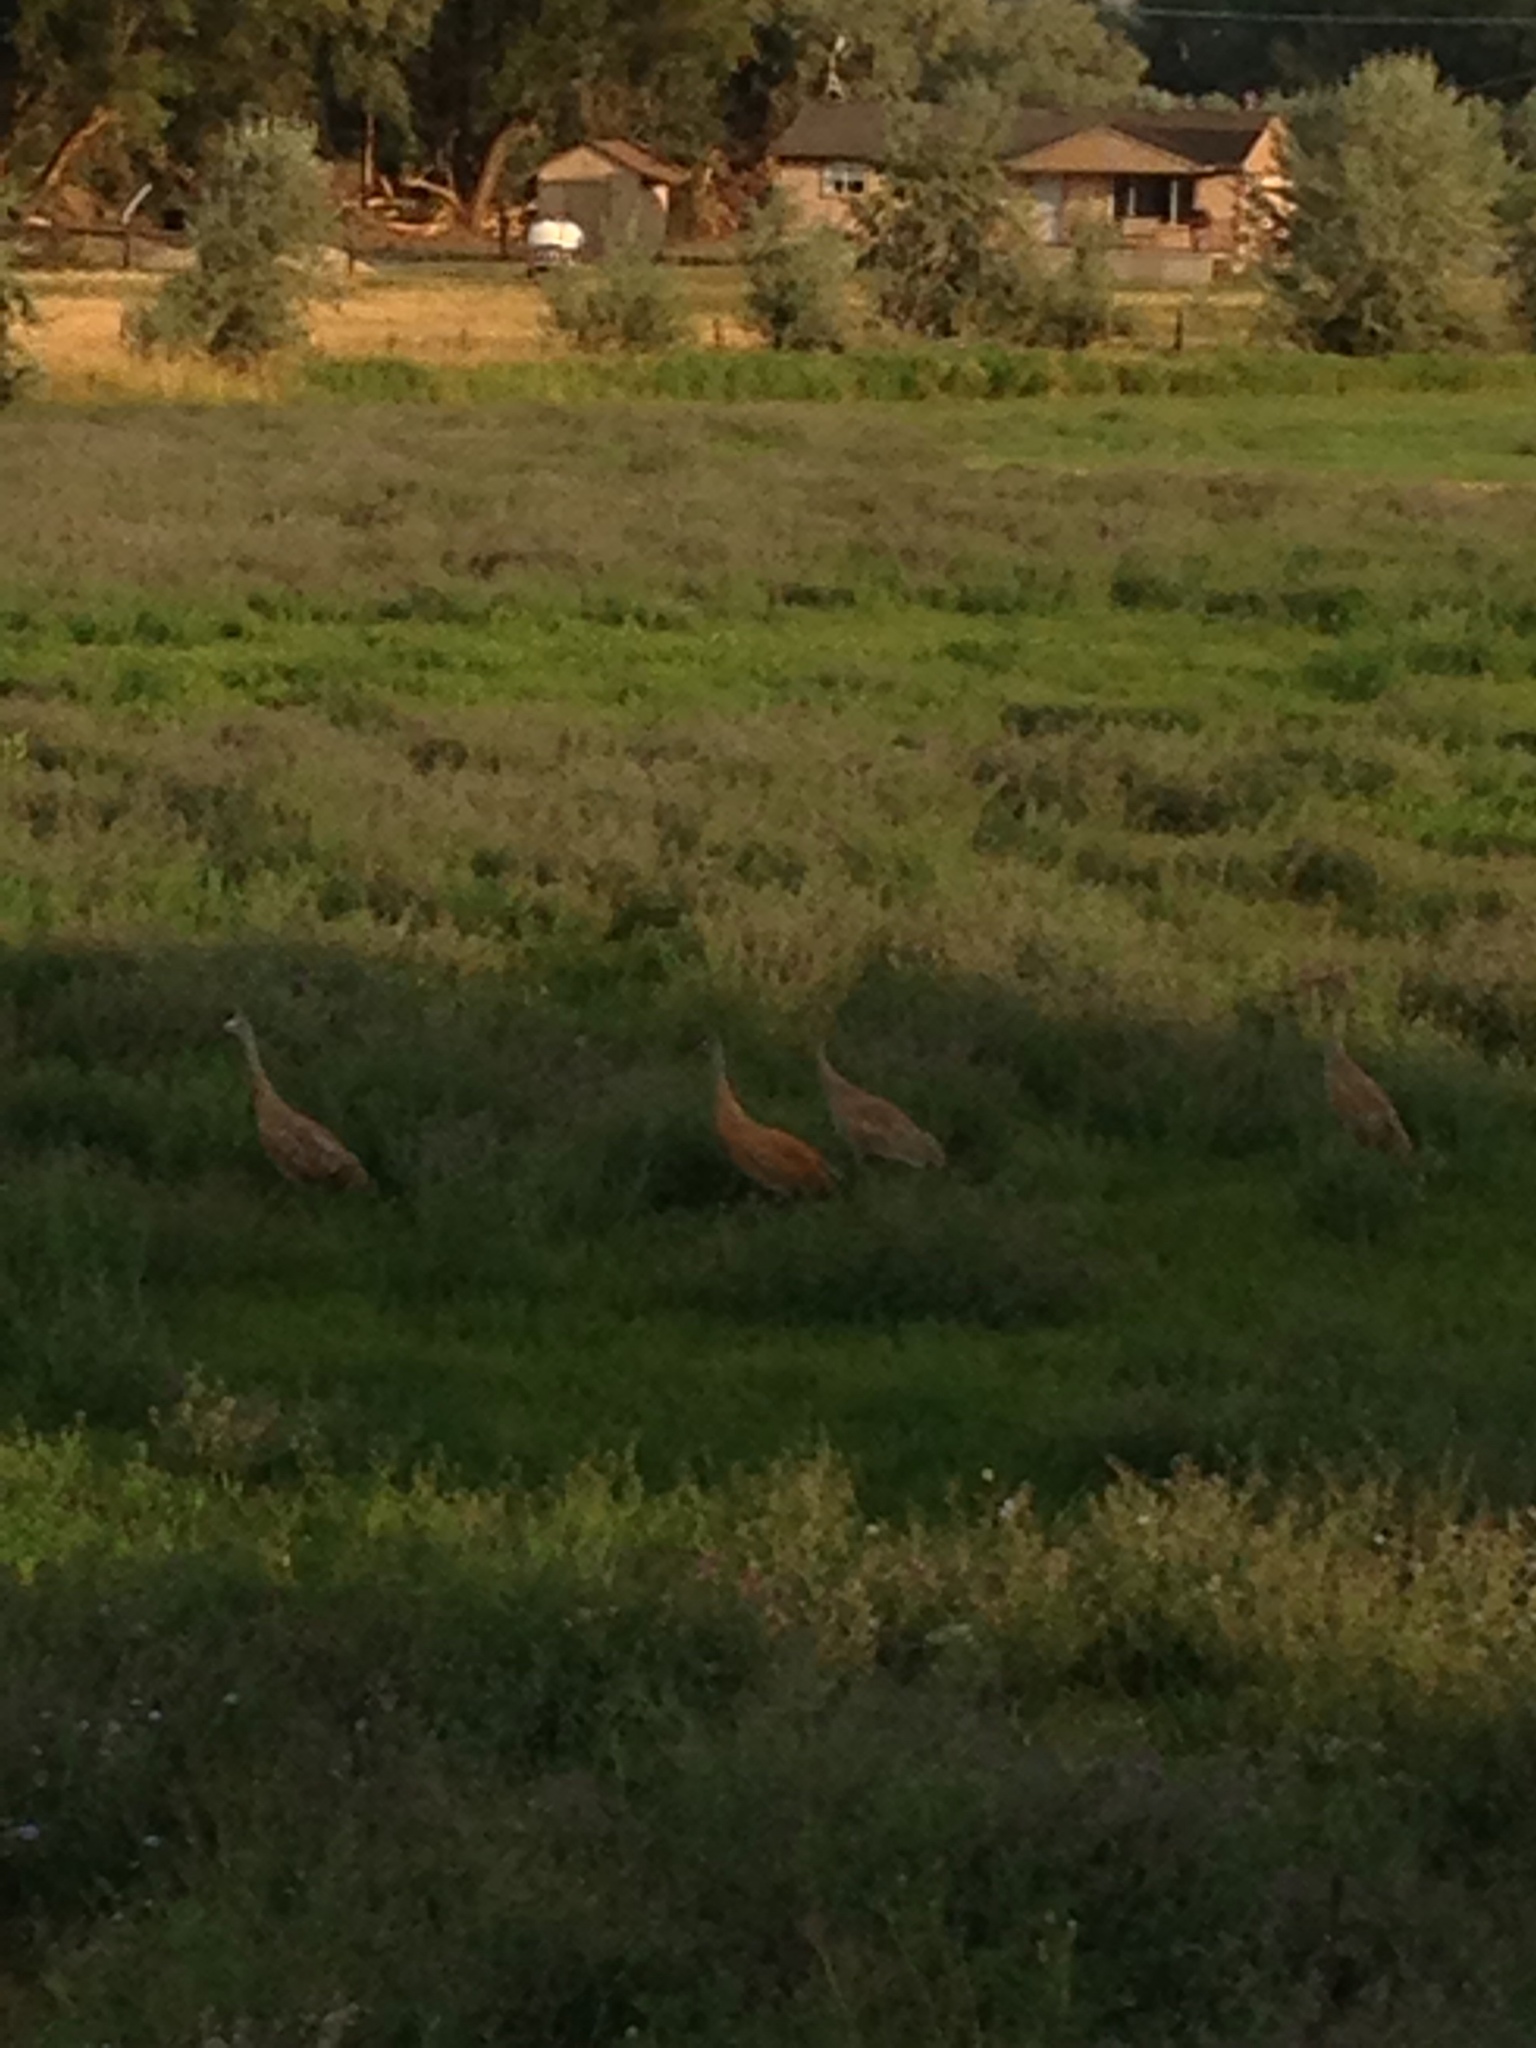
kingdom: Animalia
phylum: Chordata
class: Aves
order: Gruiformes
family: Gruidae
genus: Grus
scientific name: Grus canadensis
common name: Sandhill crane
